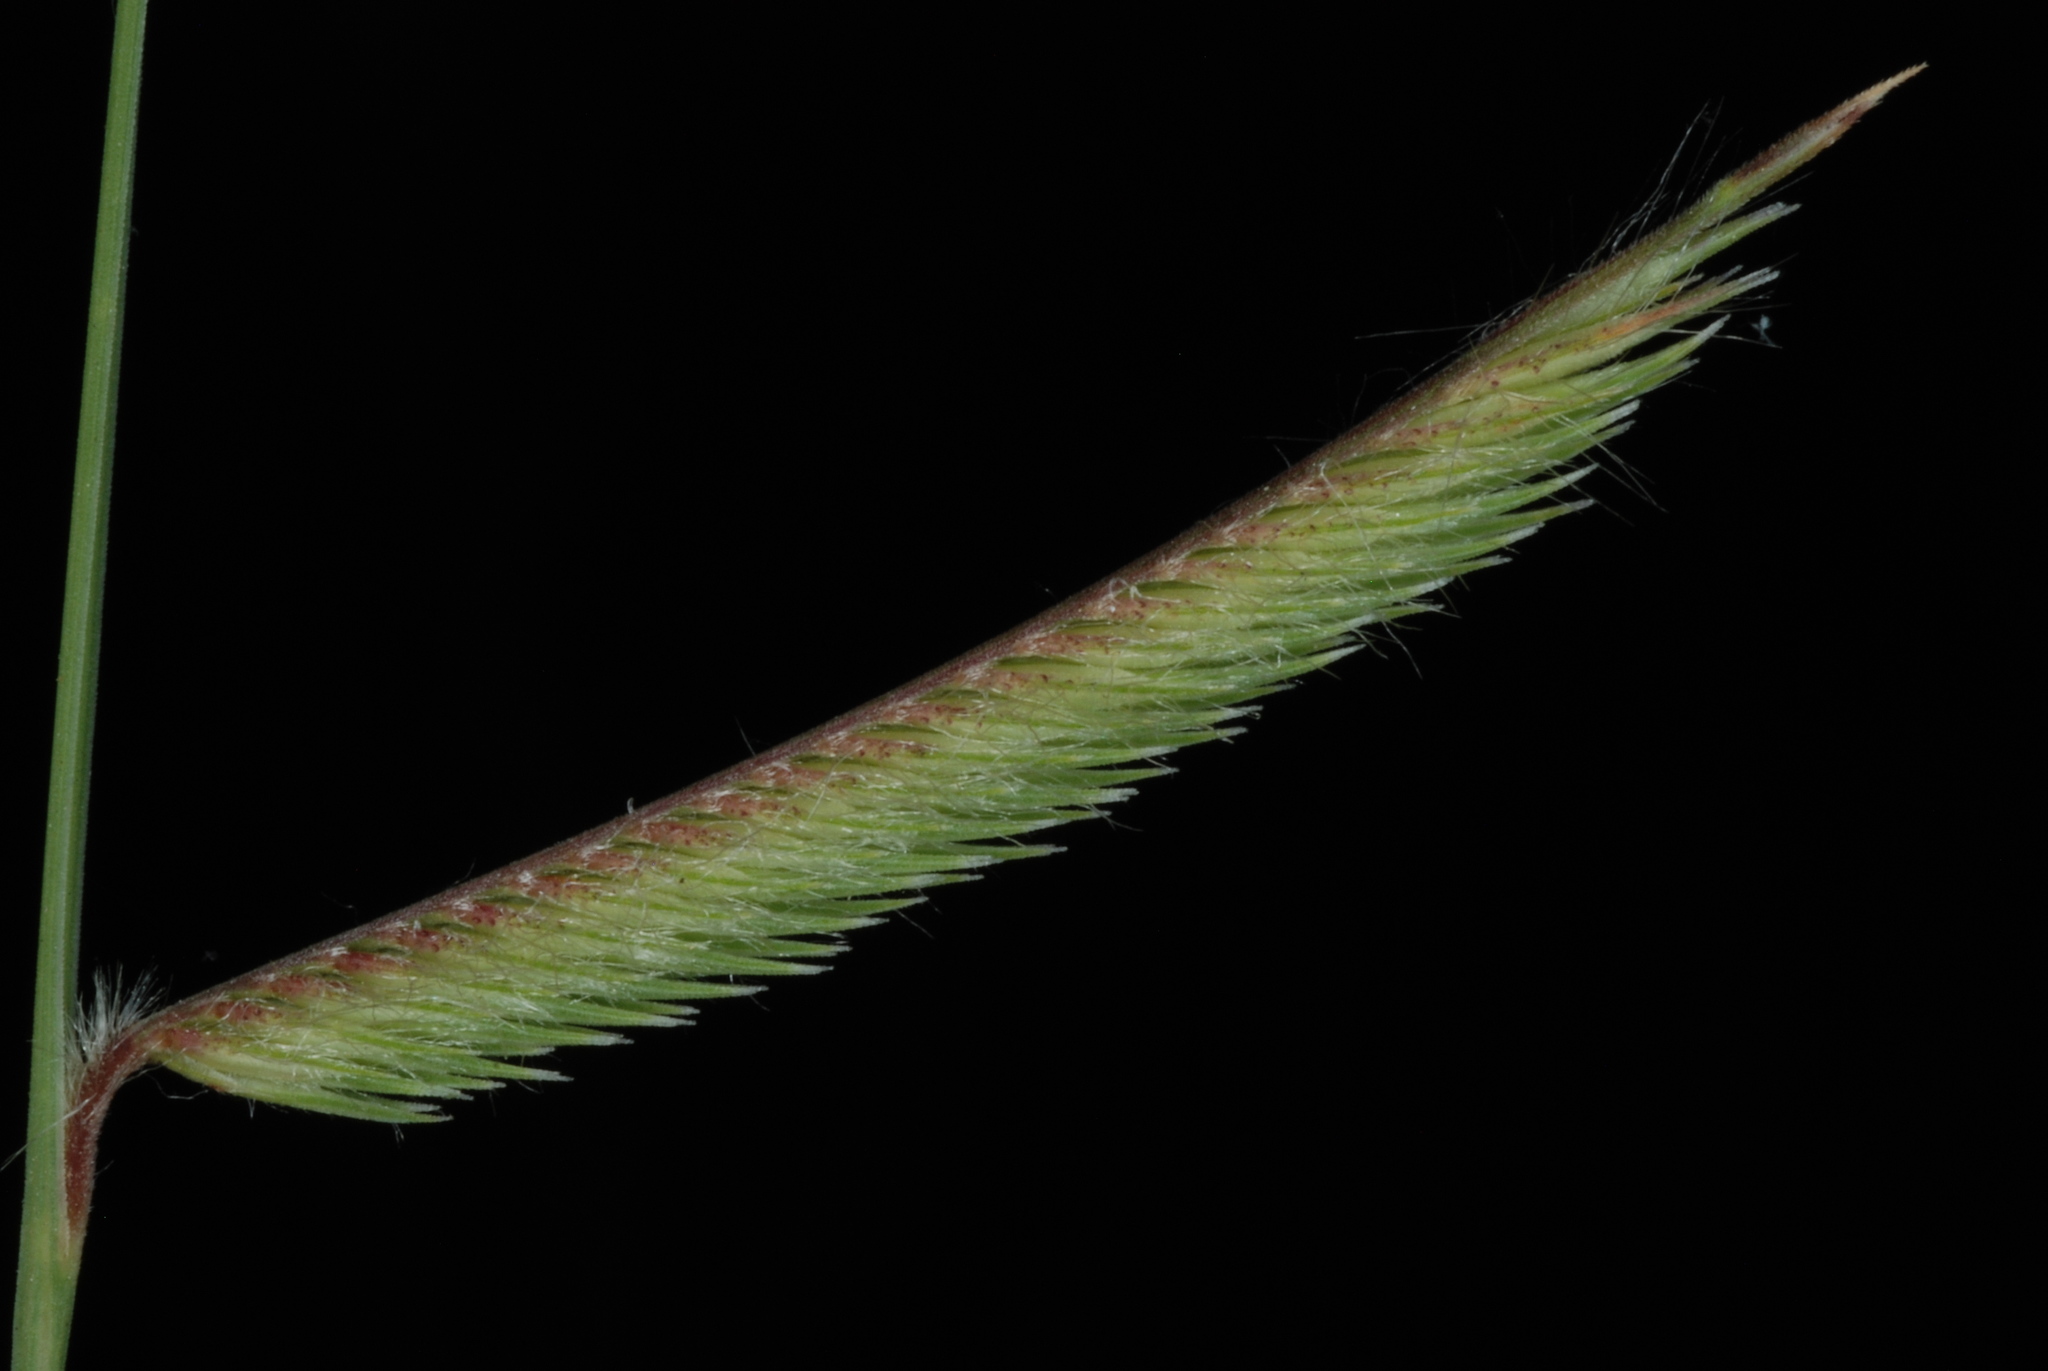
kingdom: Plantae
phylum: Tracheophyta
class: Liliopsida
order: Poales
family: Poaceae
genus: Bouteloua
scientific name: Bouteloua pectinata
